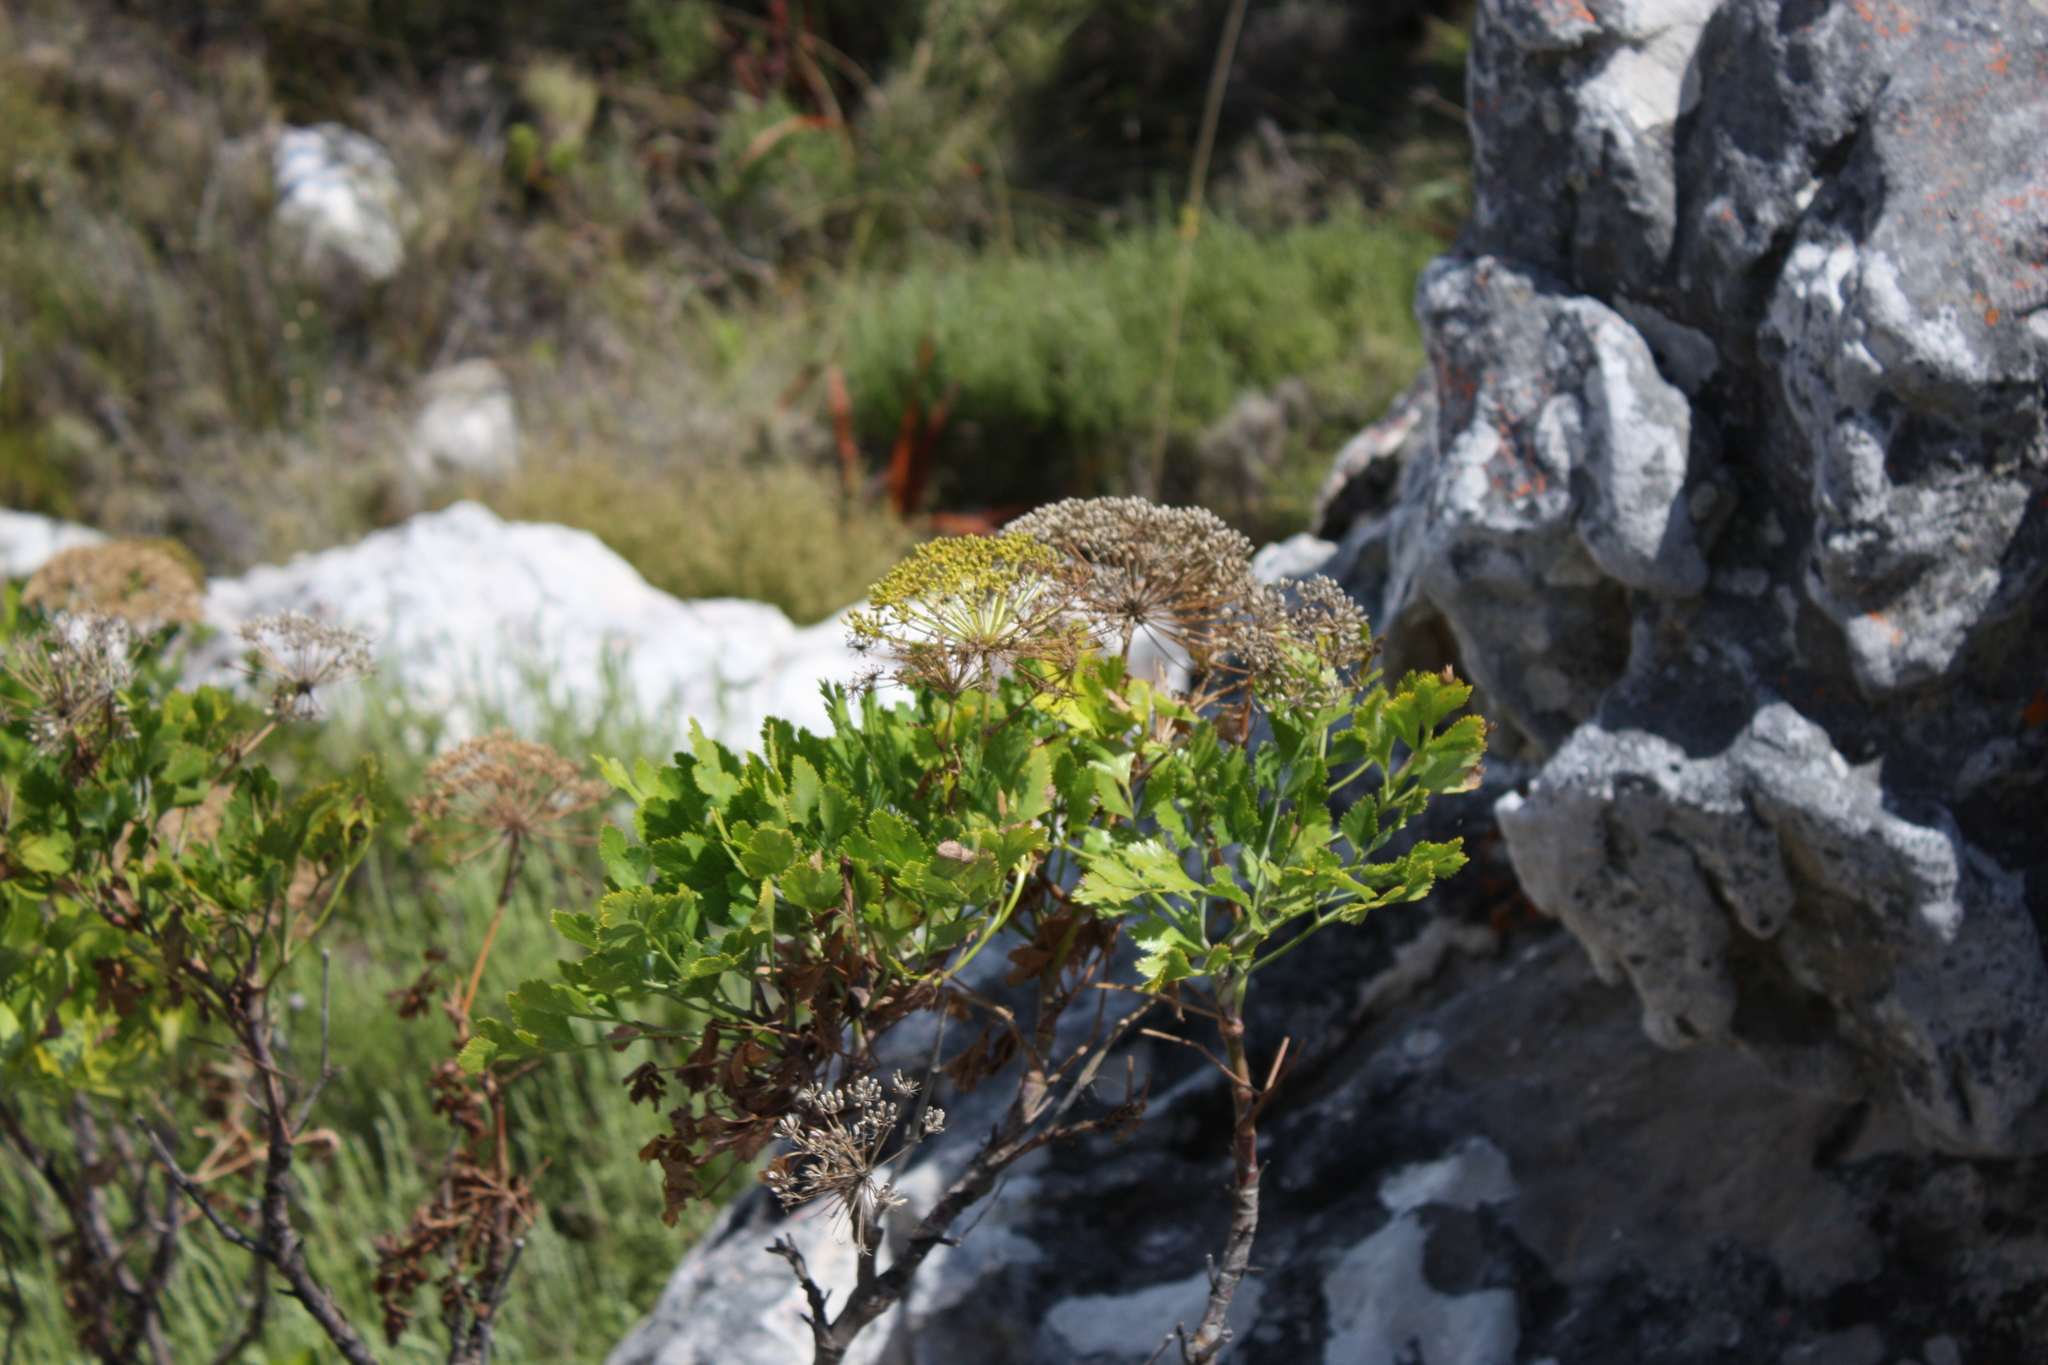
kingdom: Plantae
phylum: Tracheophyta
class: Magnoliopsida
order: Apiales
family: Apiaceae
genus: Notobubon
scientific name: Notobubon galbanum
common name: Blisterbush
